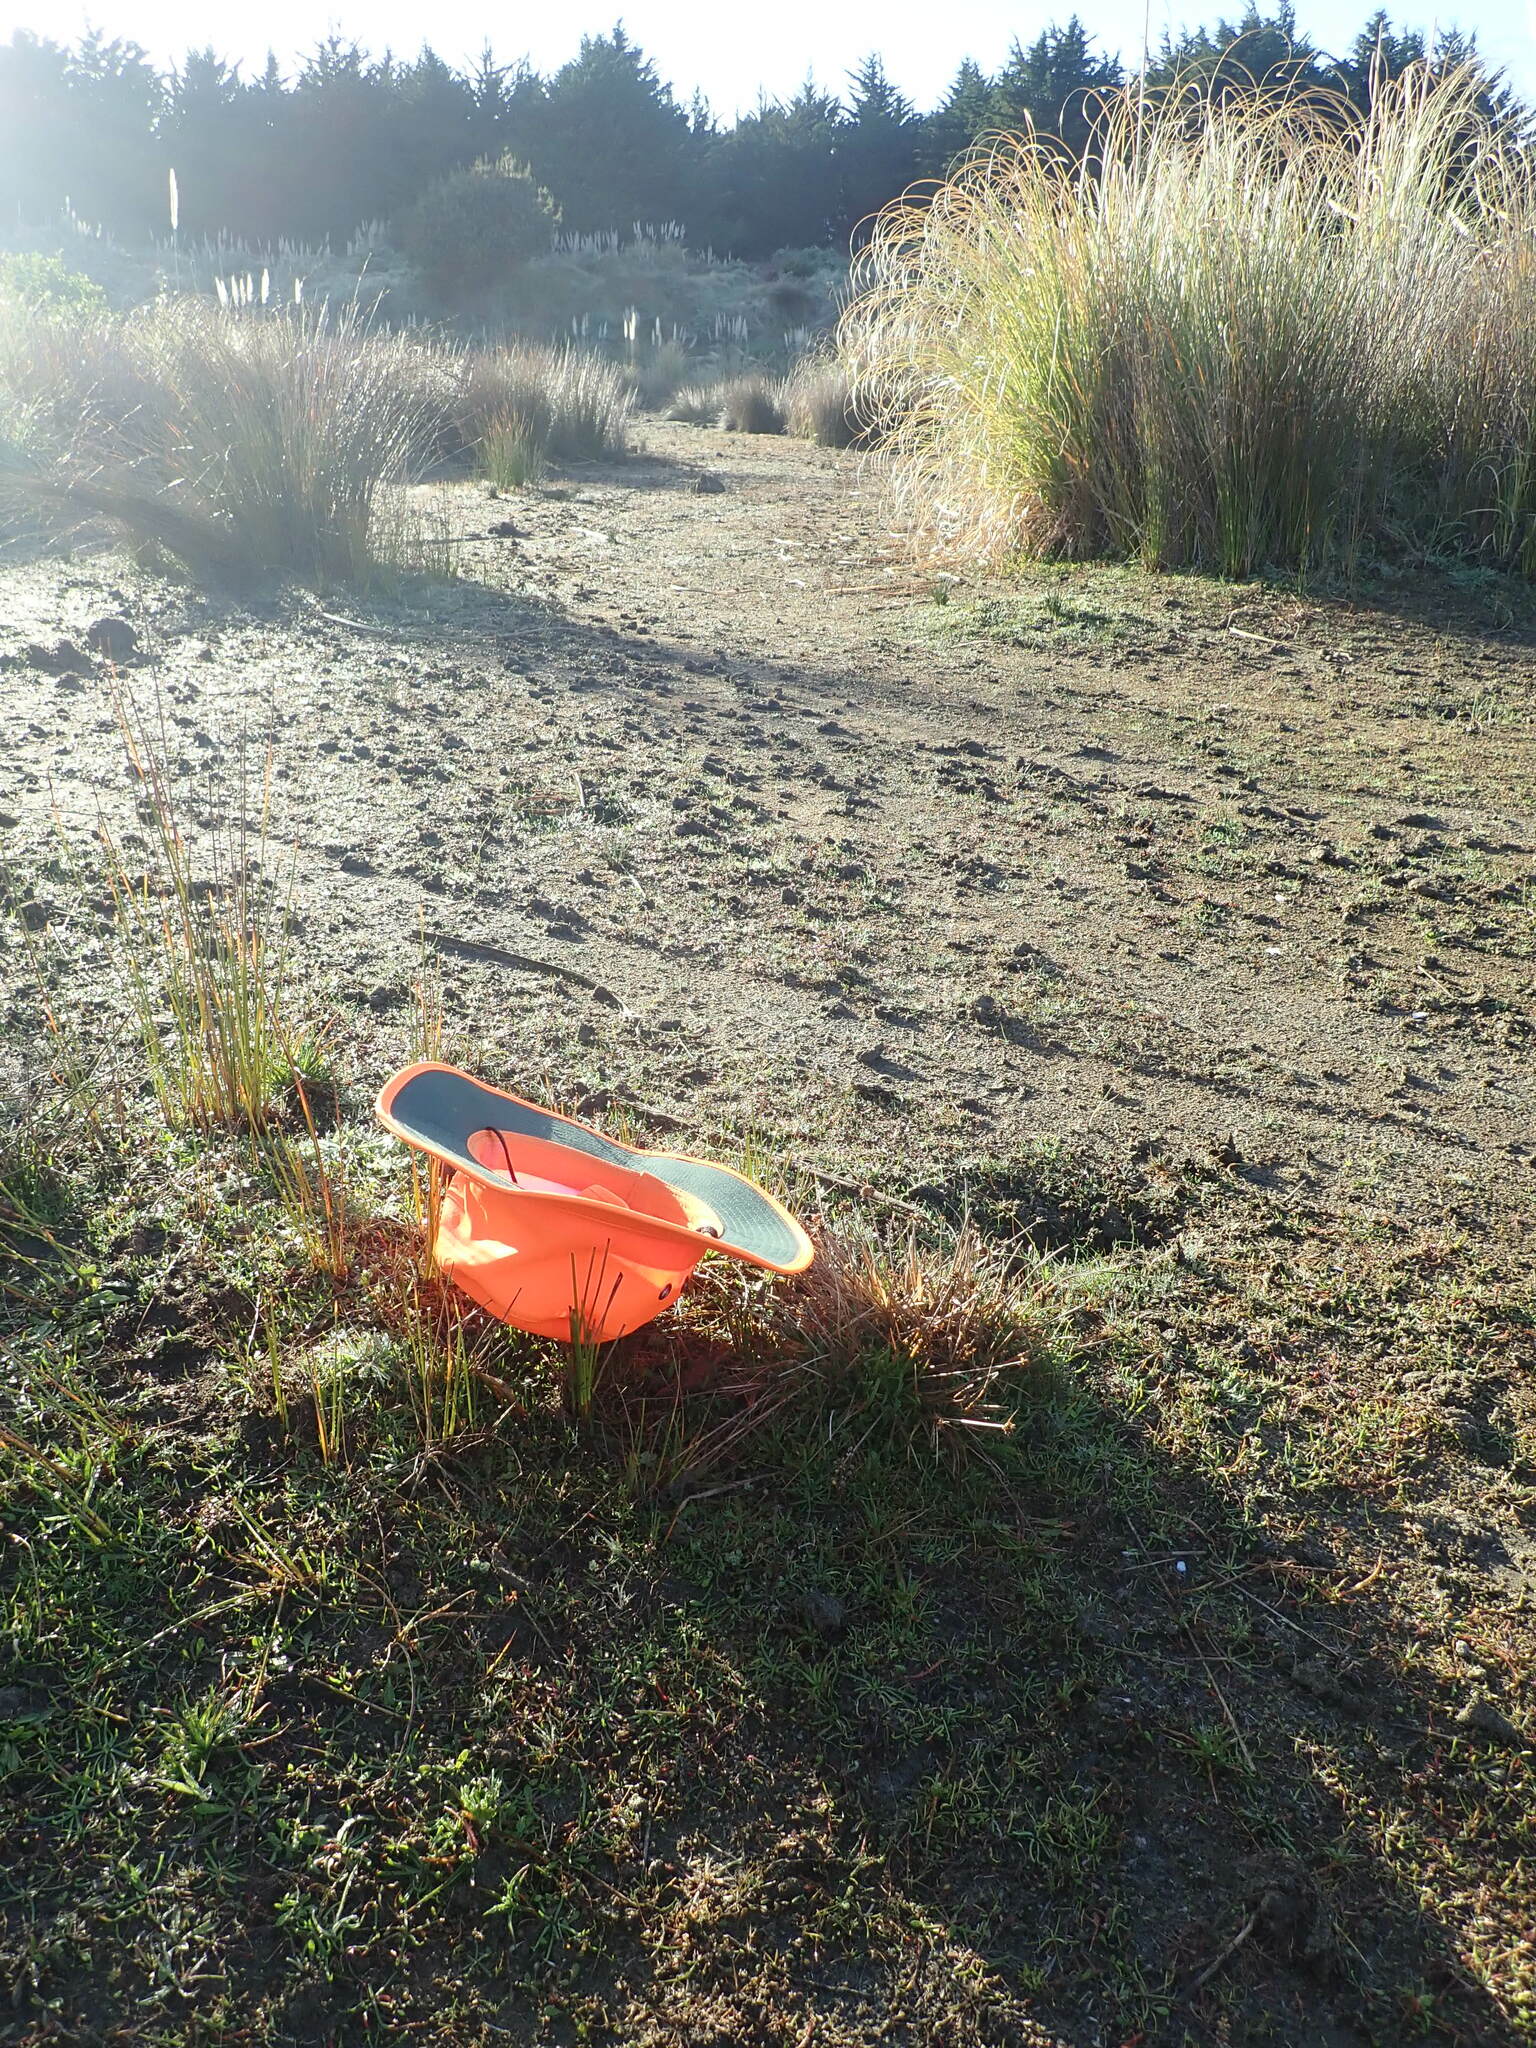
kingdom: Plantae
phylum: Tracheophyta
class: Liliopsida
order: Poales
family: Juncaceae
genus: Juncus
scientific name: Juncus caespiticius
